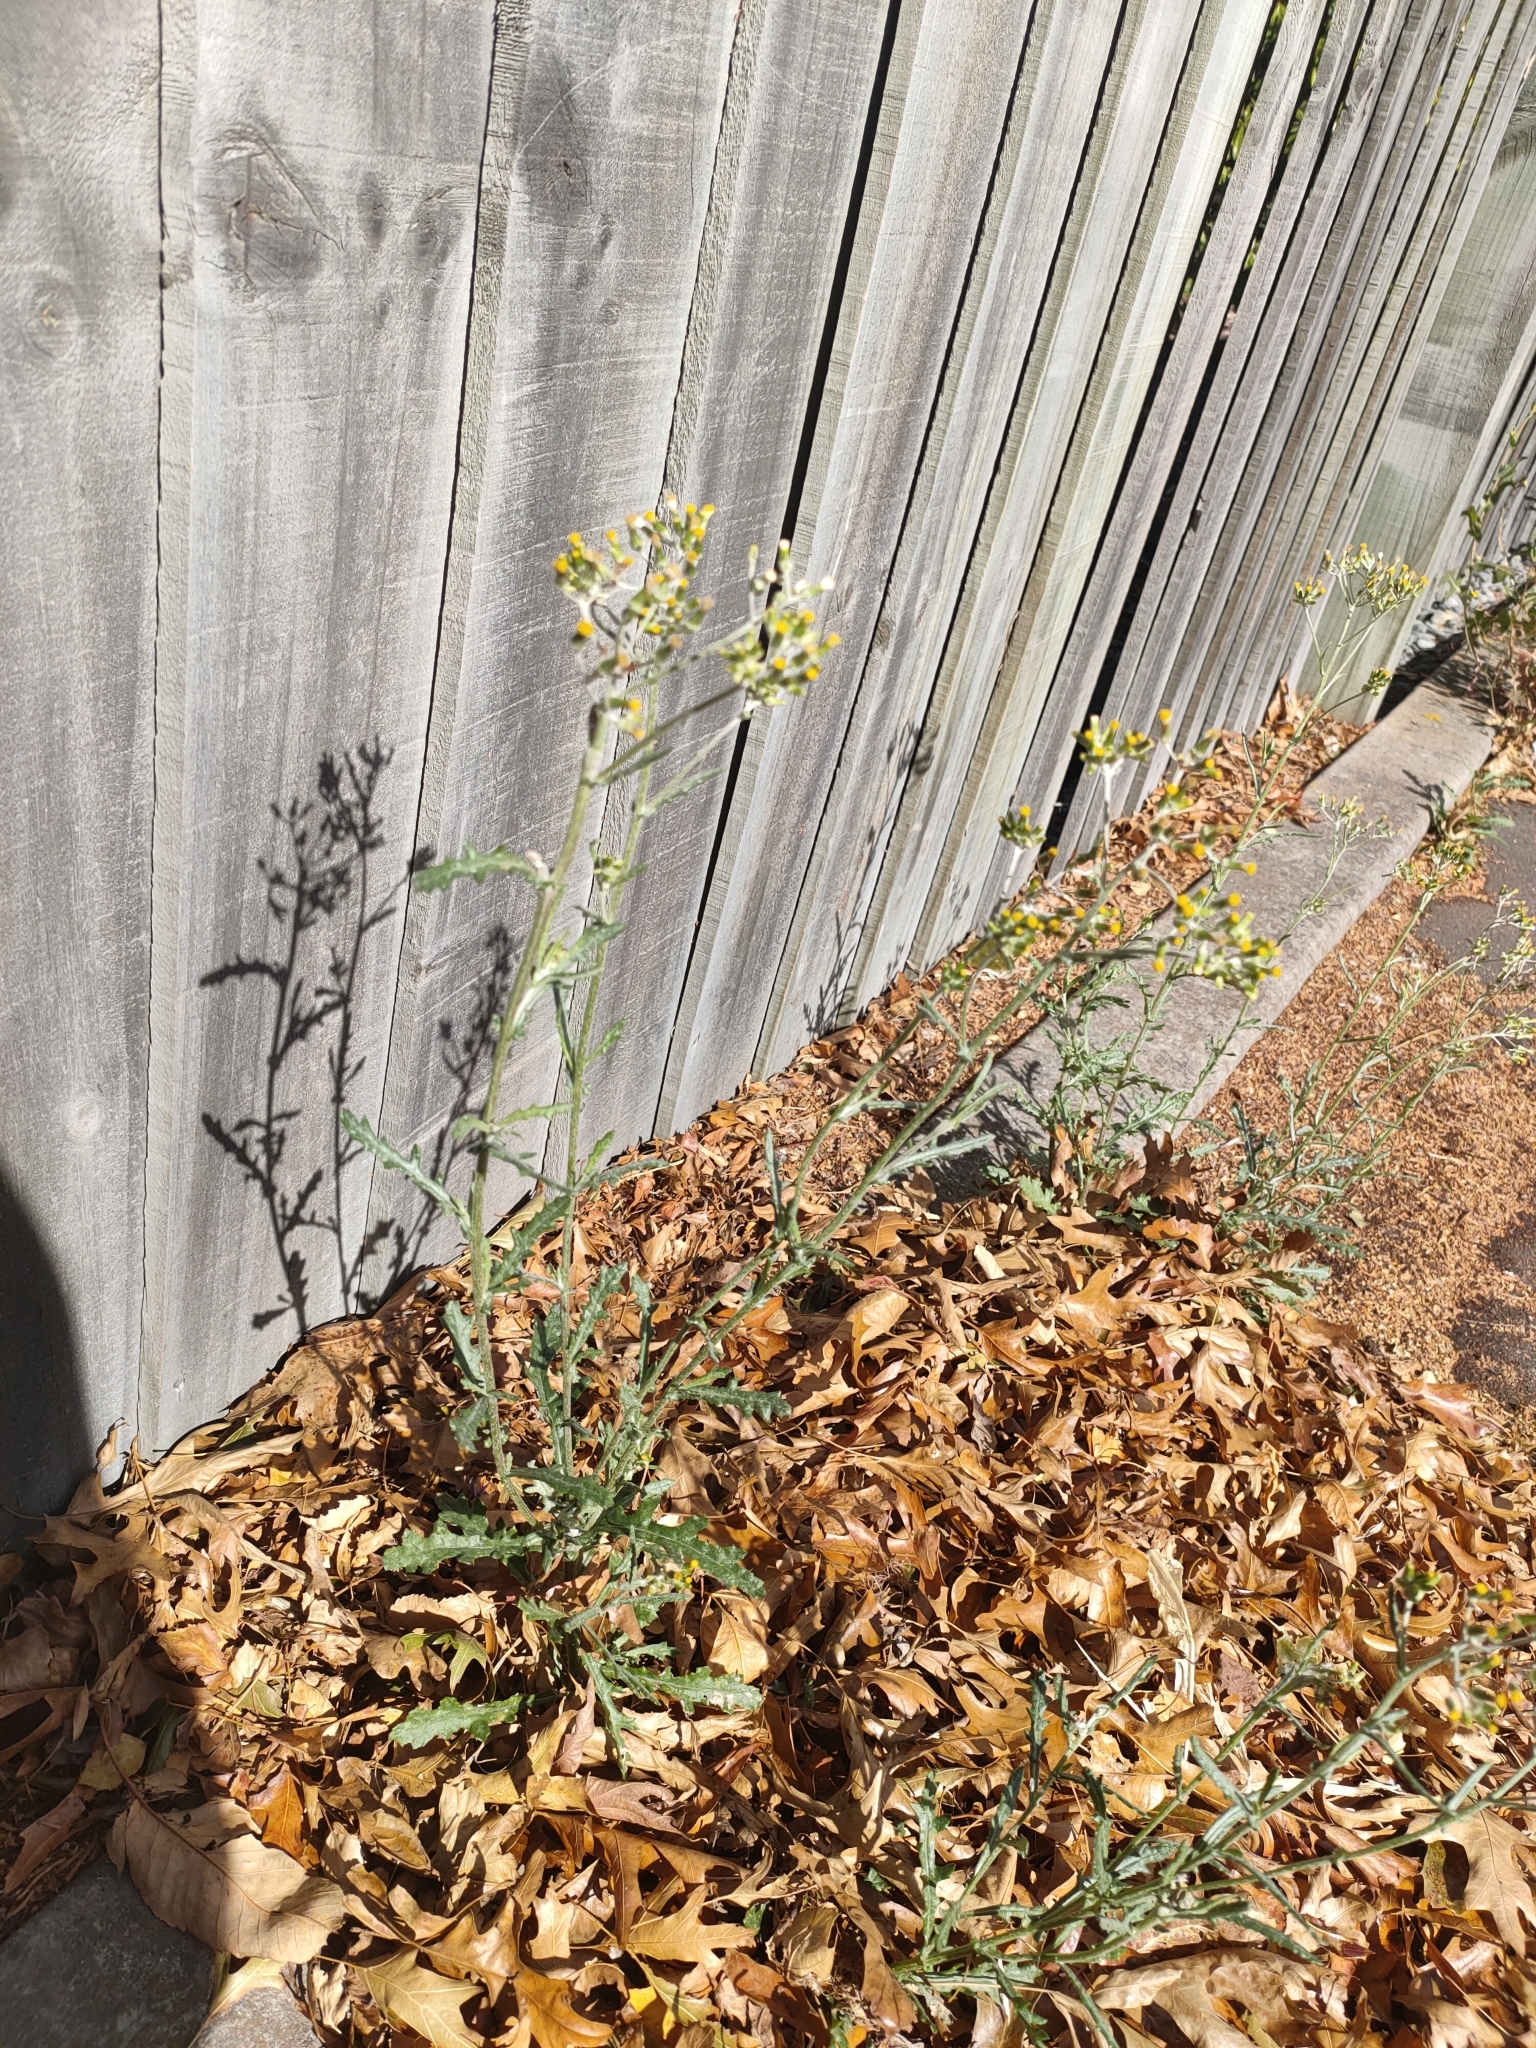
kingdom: Plantae
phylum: Tracheophyta
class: Magnoliopsida
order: Asterales
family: Asteraceae
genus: Senecio
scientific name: Senecio glomeratus
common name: Cutleaf burnweed
